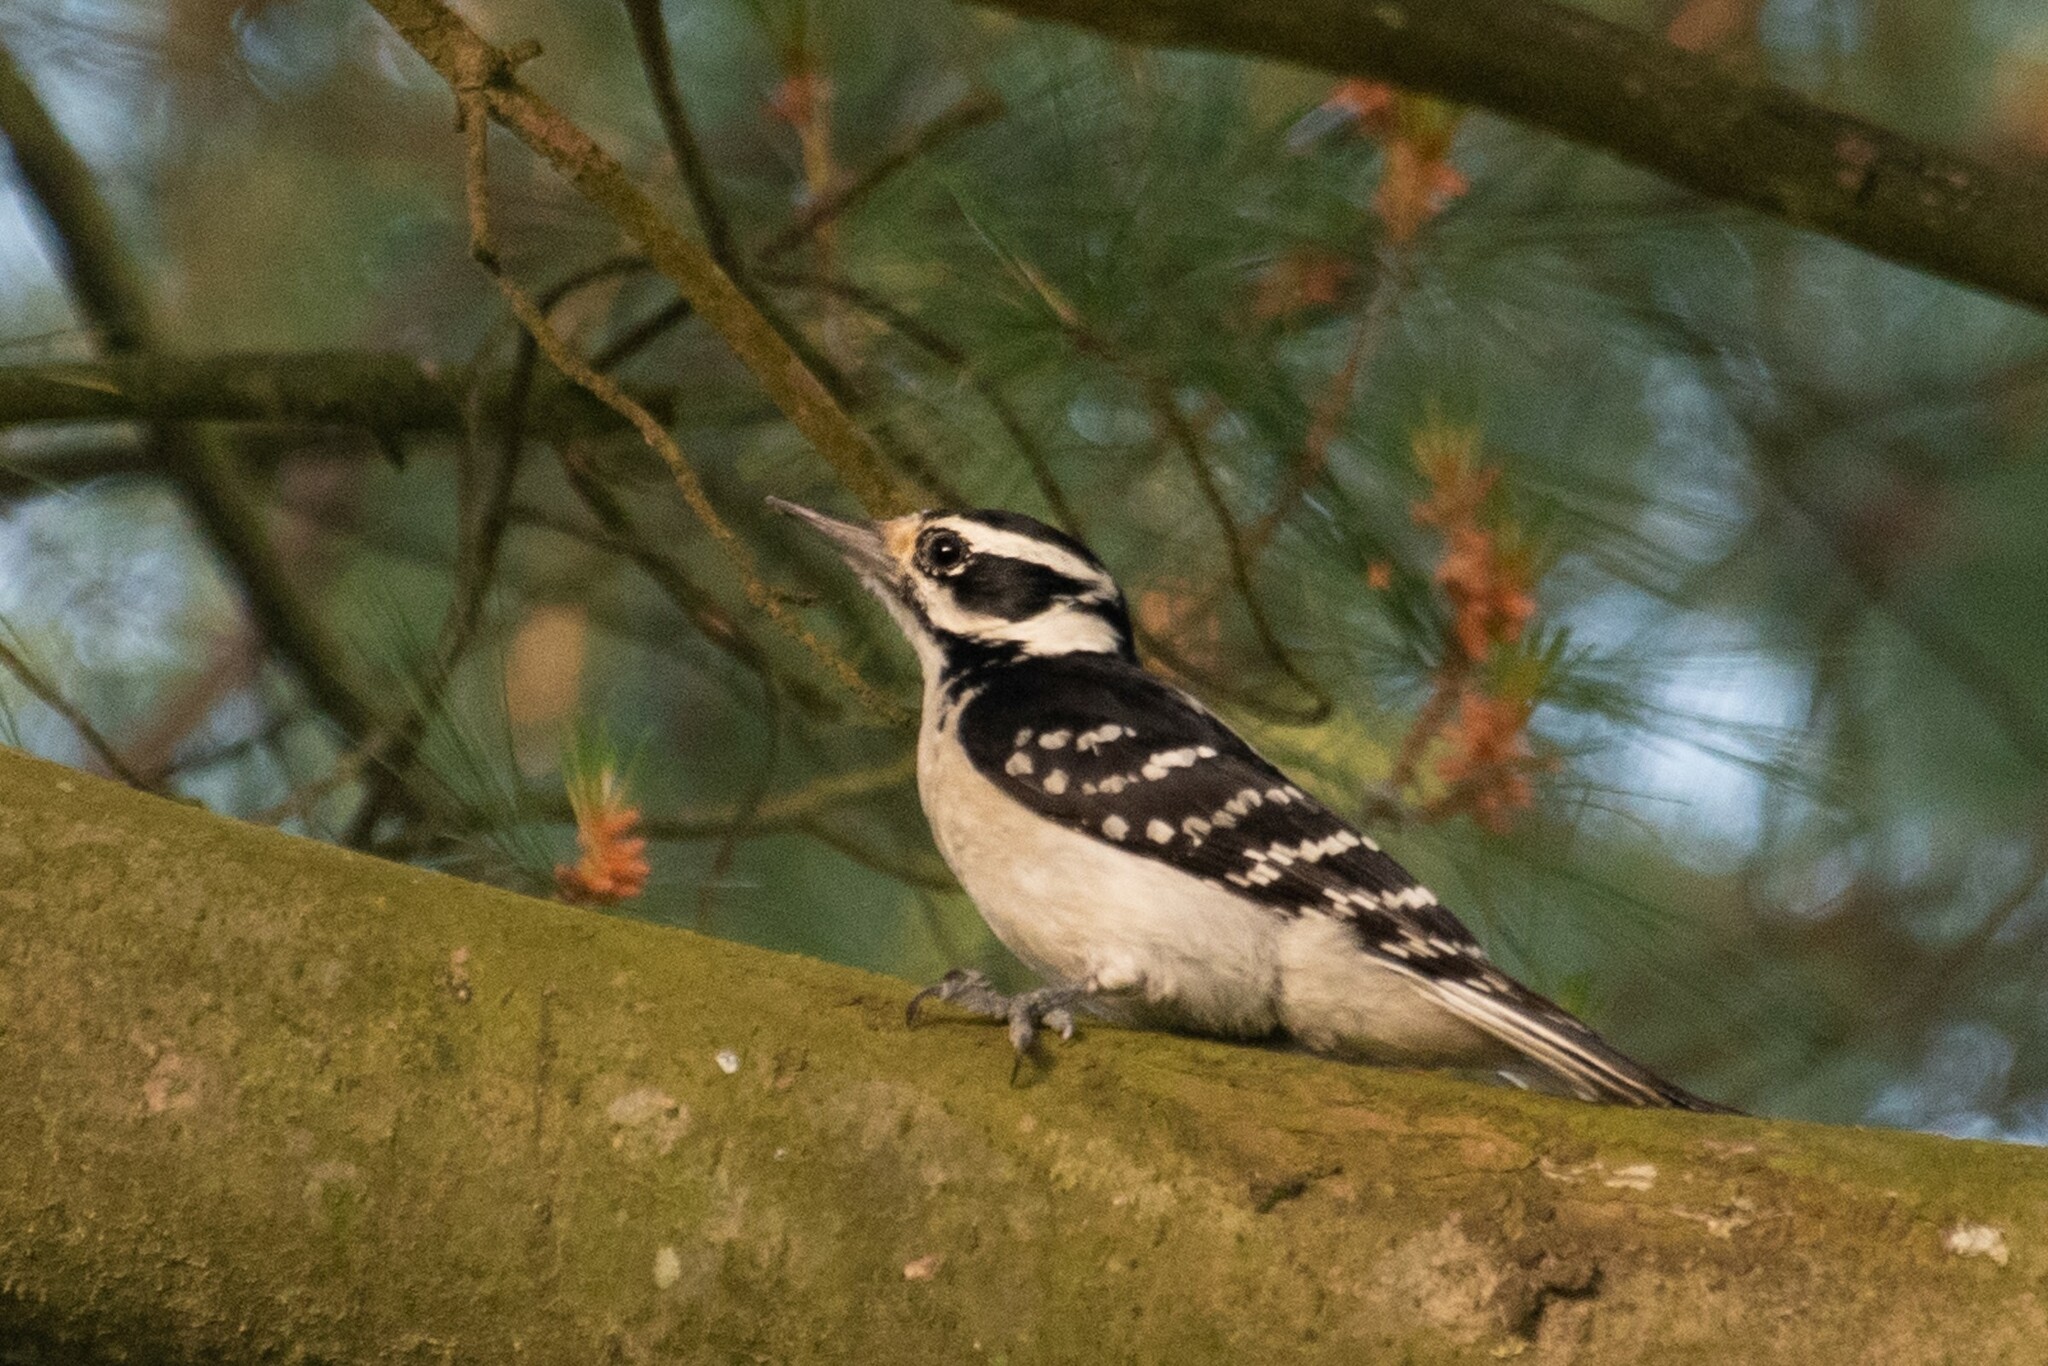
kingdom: Animalia
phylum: Chordata
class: Aves
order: Piciformes
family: Picidae
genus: Leuconotopicus
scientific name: Leuconotopicus villosus
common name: Hairy woodpecker
